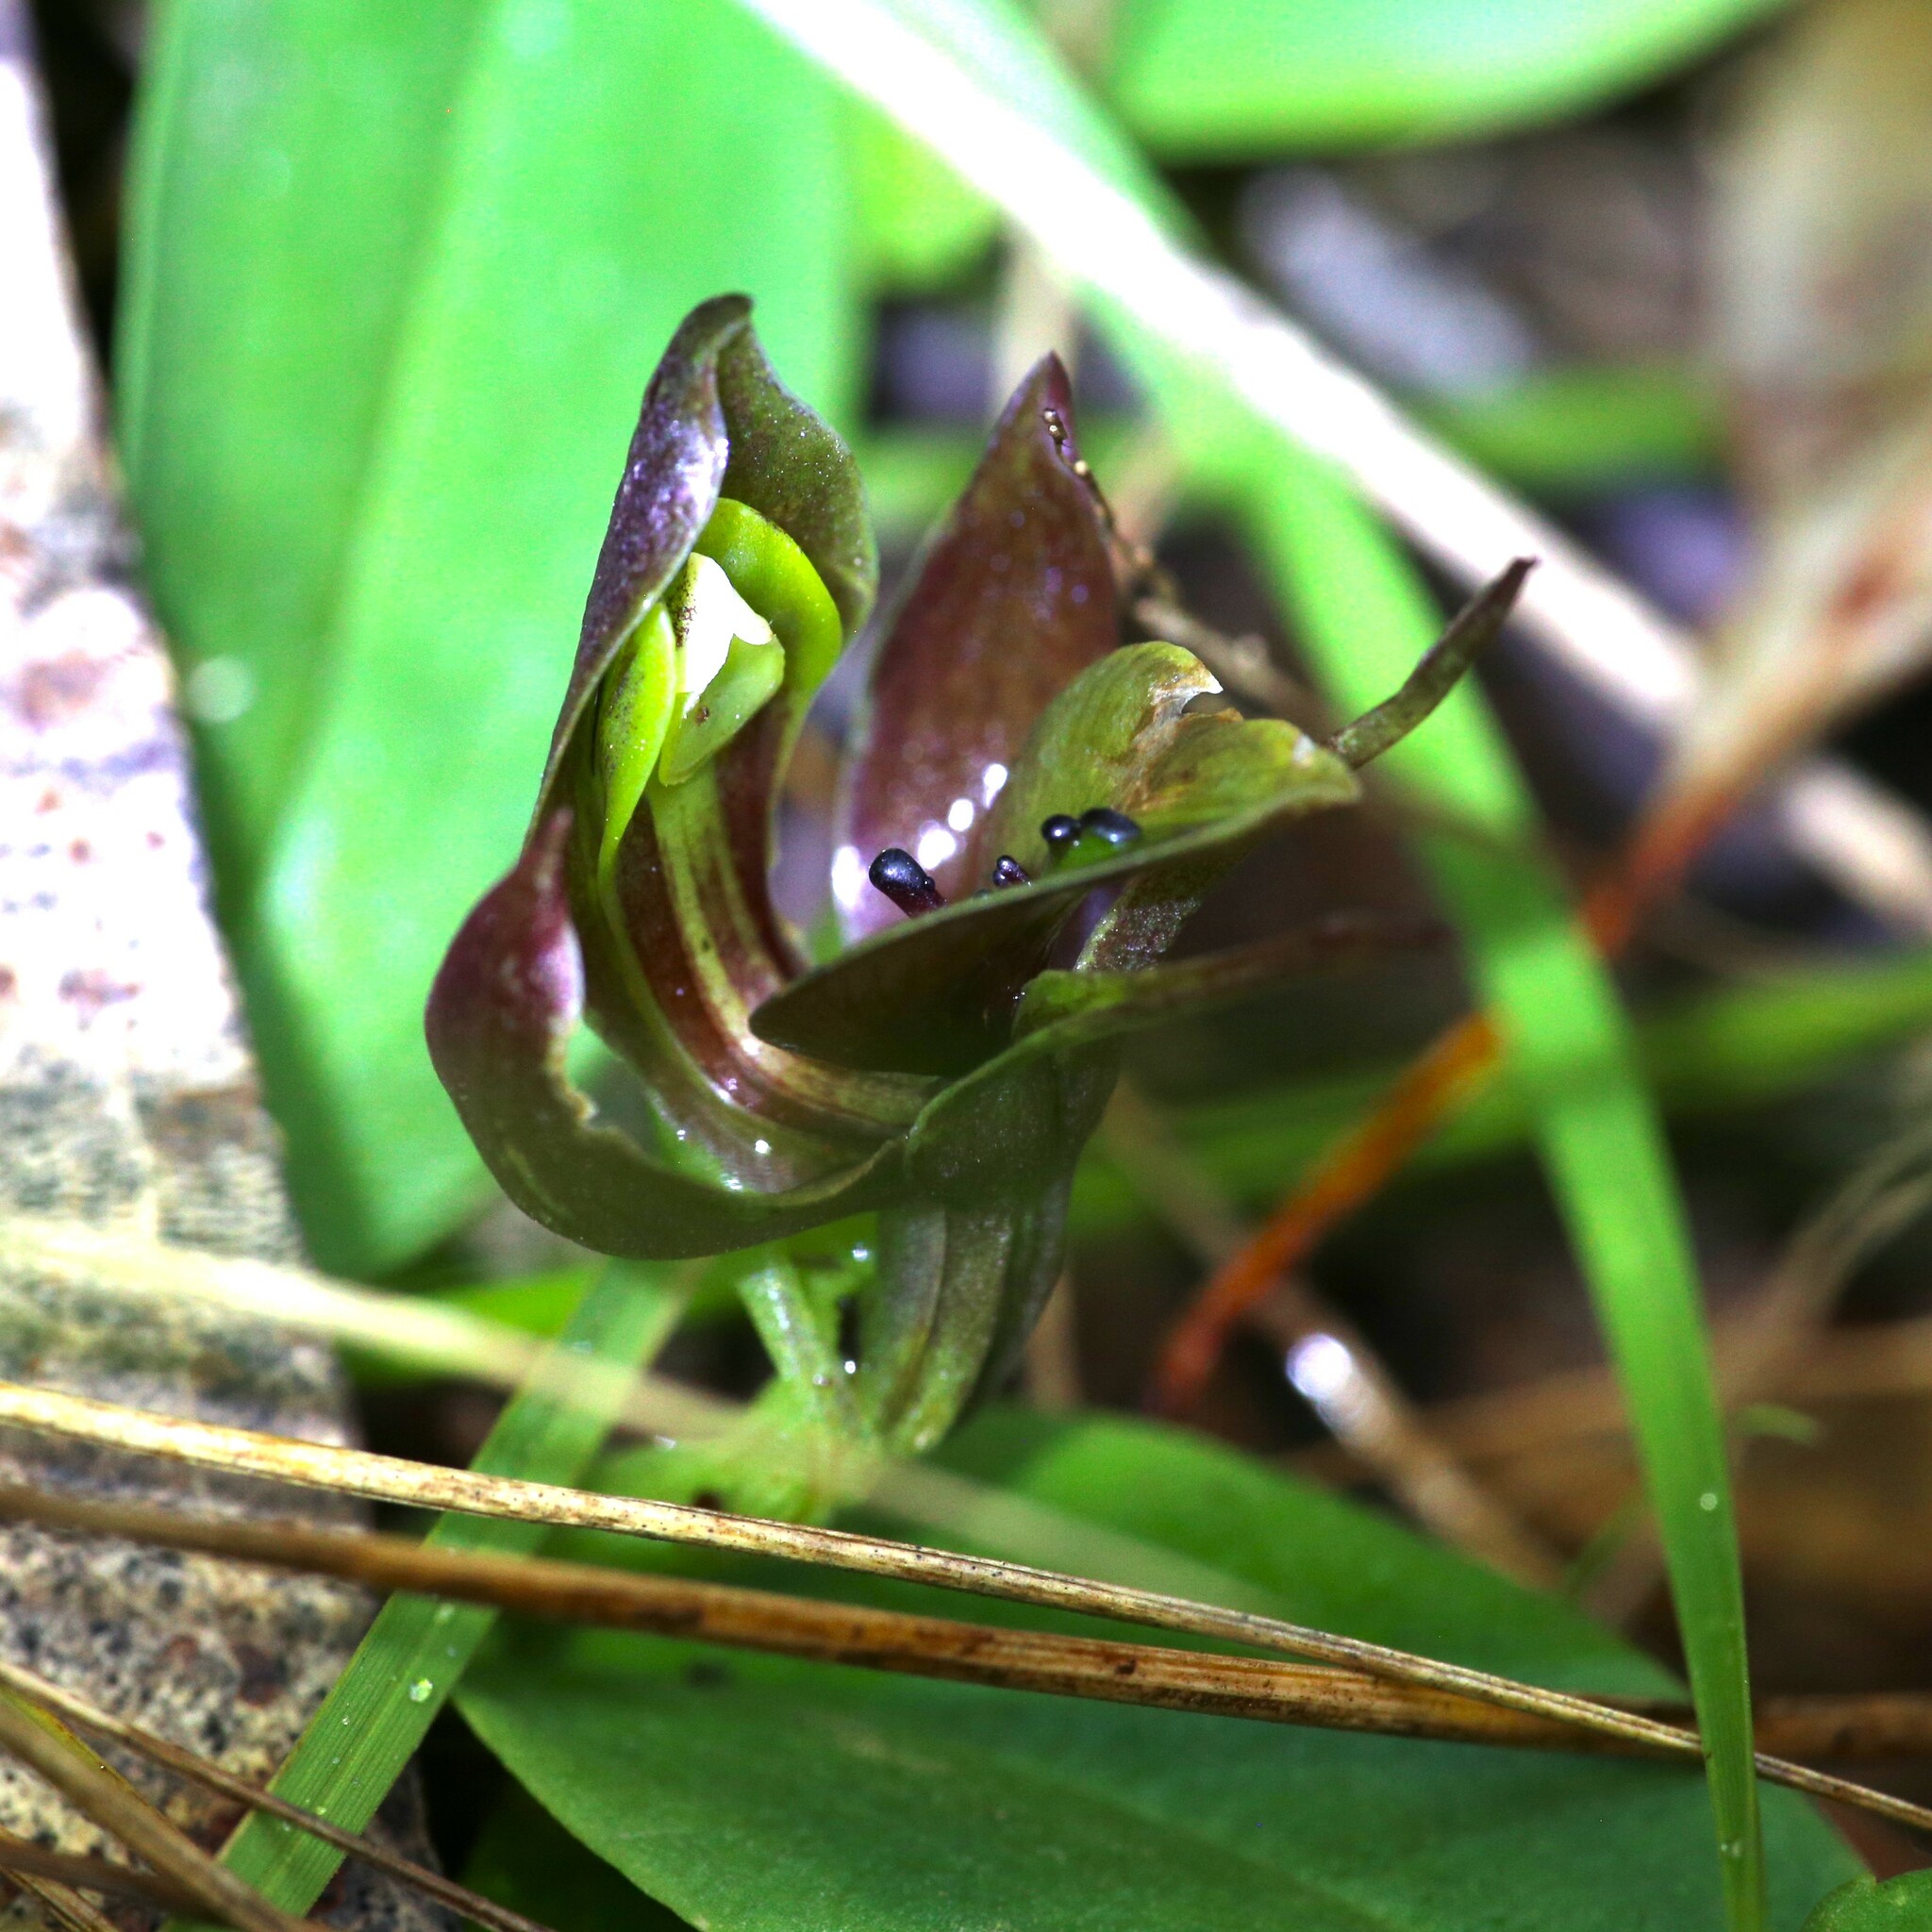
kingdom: Plantae
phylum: Tracheophyta
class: Liliopsida
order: Asparagales
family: Orchidaceae
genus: Chiloglottis
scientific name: Chiloglottis valida
